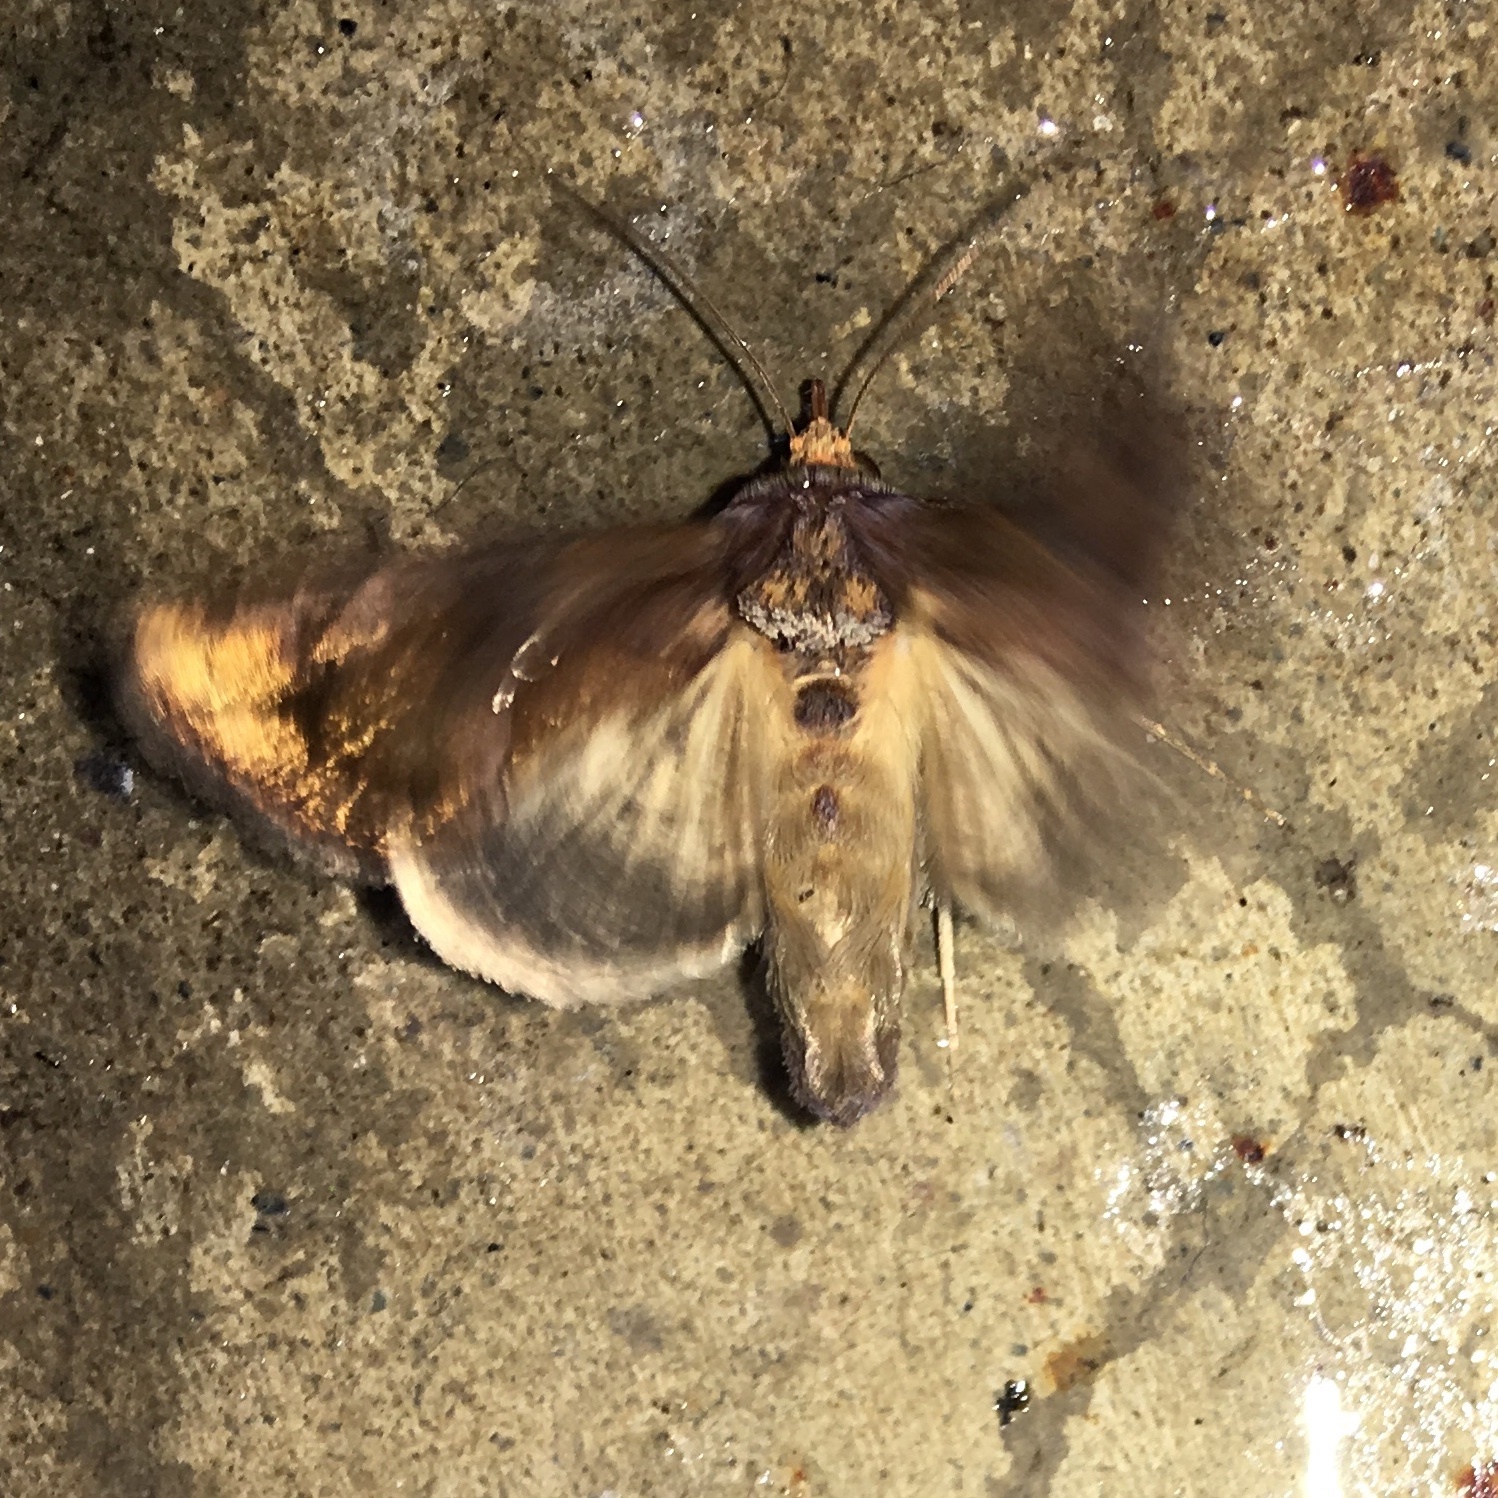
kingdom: Animalia
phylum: Arthropoda
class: Insecta
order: Lepidoptera
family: Noctuidae
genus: Argyrogramma
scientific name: Argyrogramma verruca
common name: Golden looper moth
